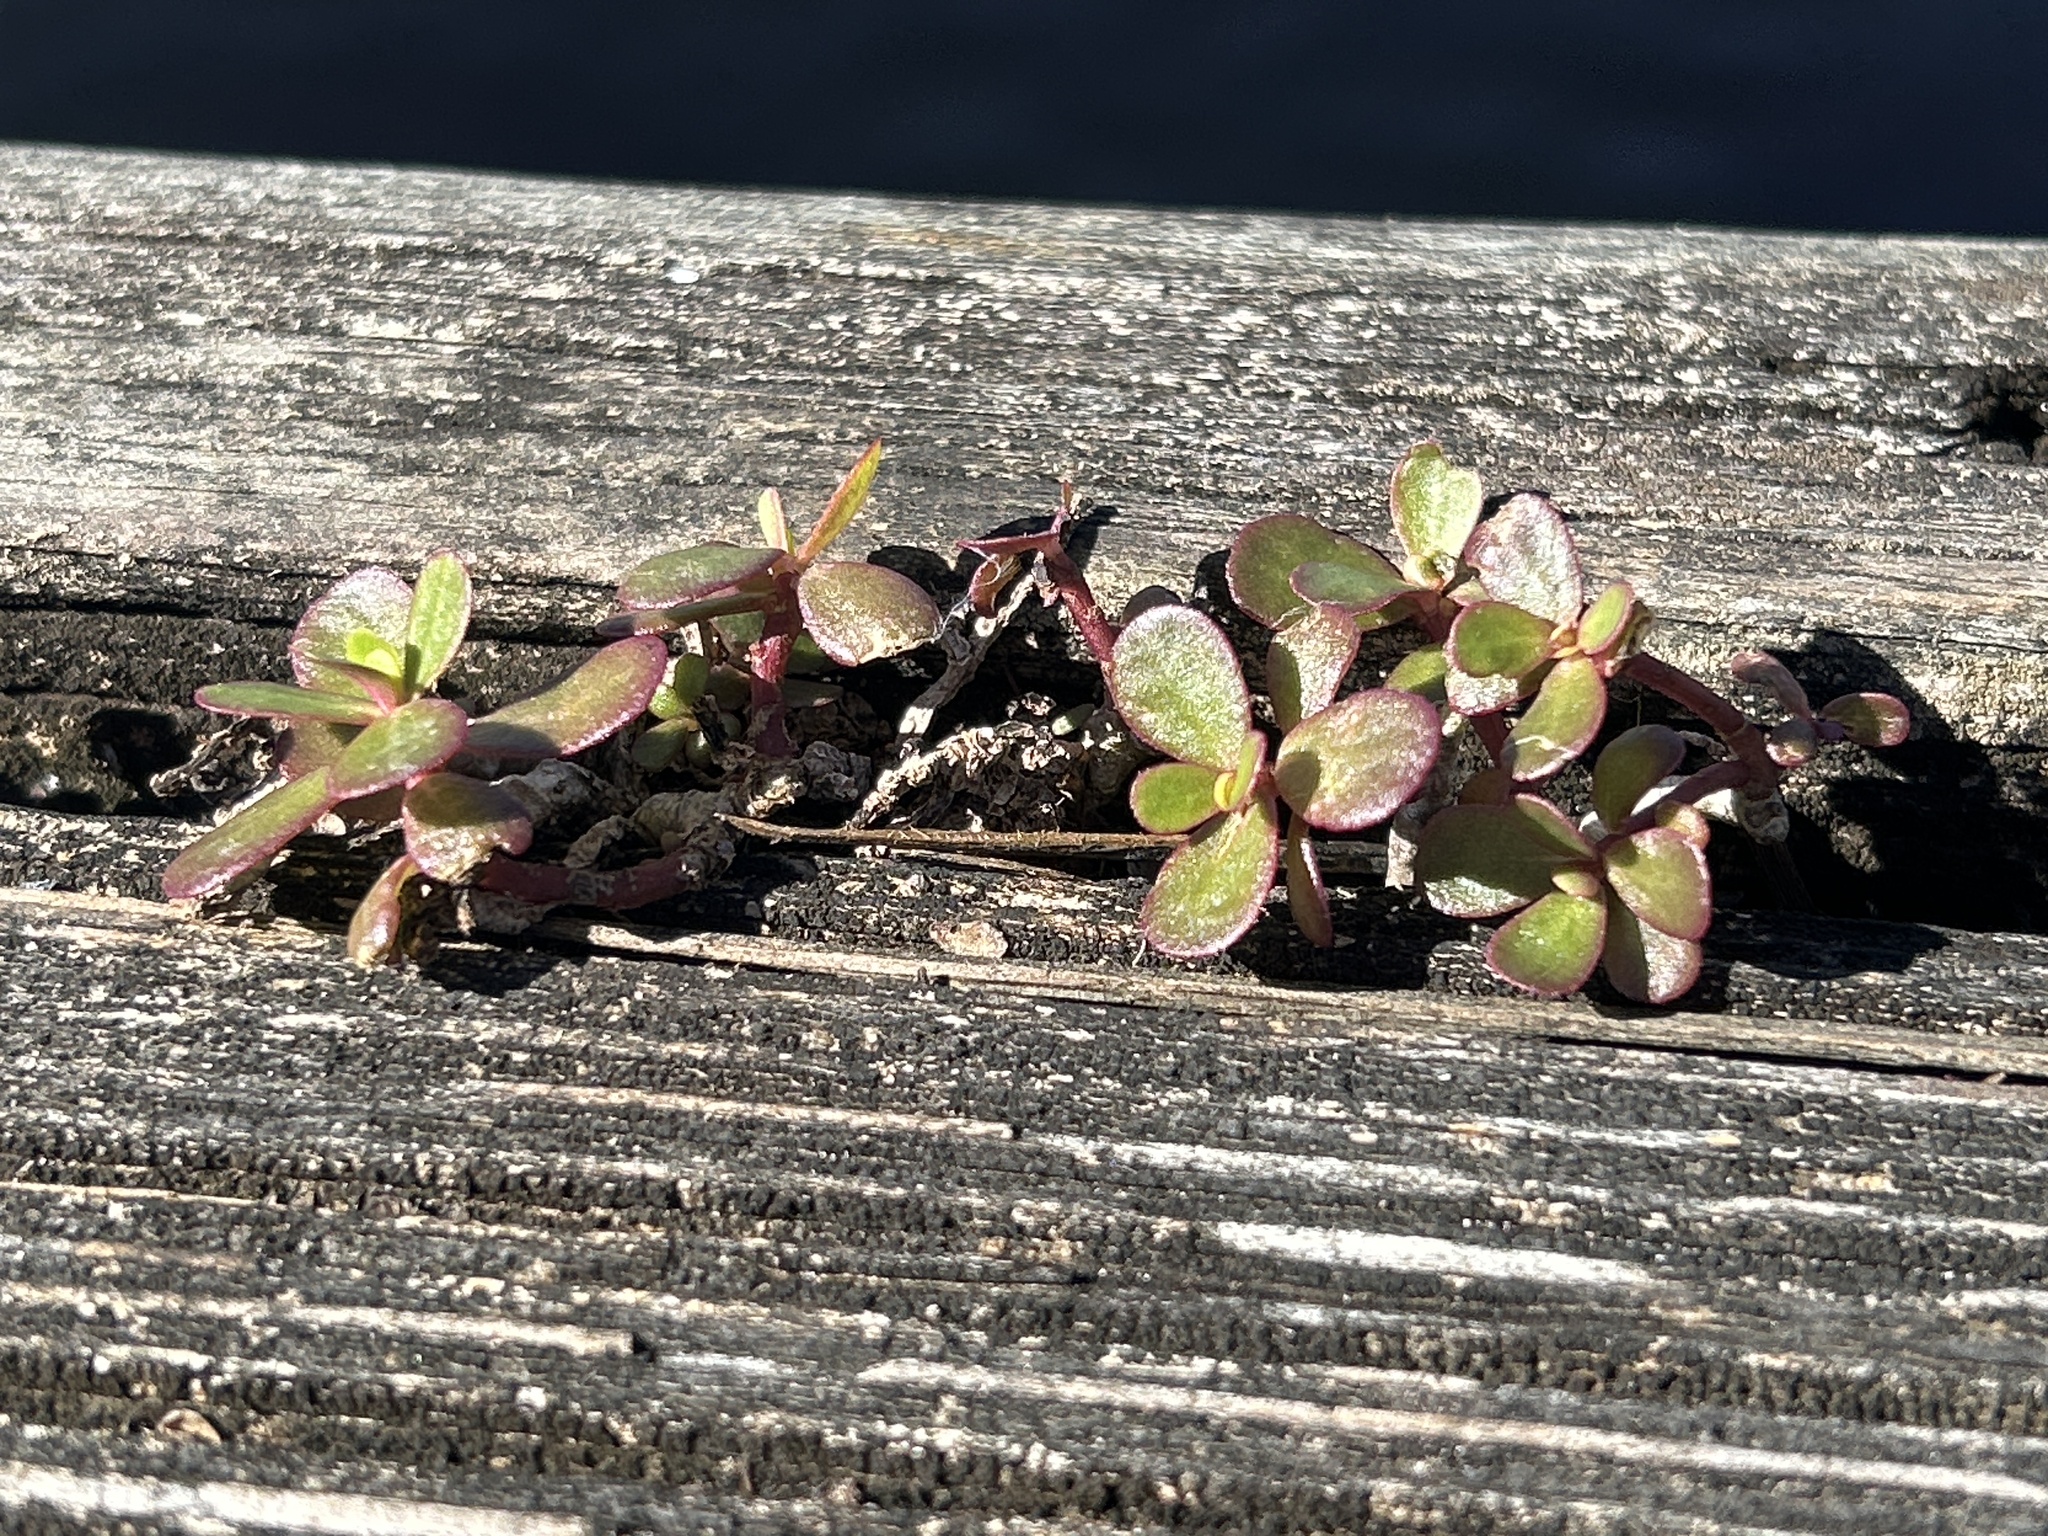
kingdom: Plantae
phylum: Tracheophyta
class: Magnoliopsida
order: Caryophyllales
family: Portulacaceae
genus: Portulaca
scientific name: Portulaca oleracea
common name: Common purslane
